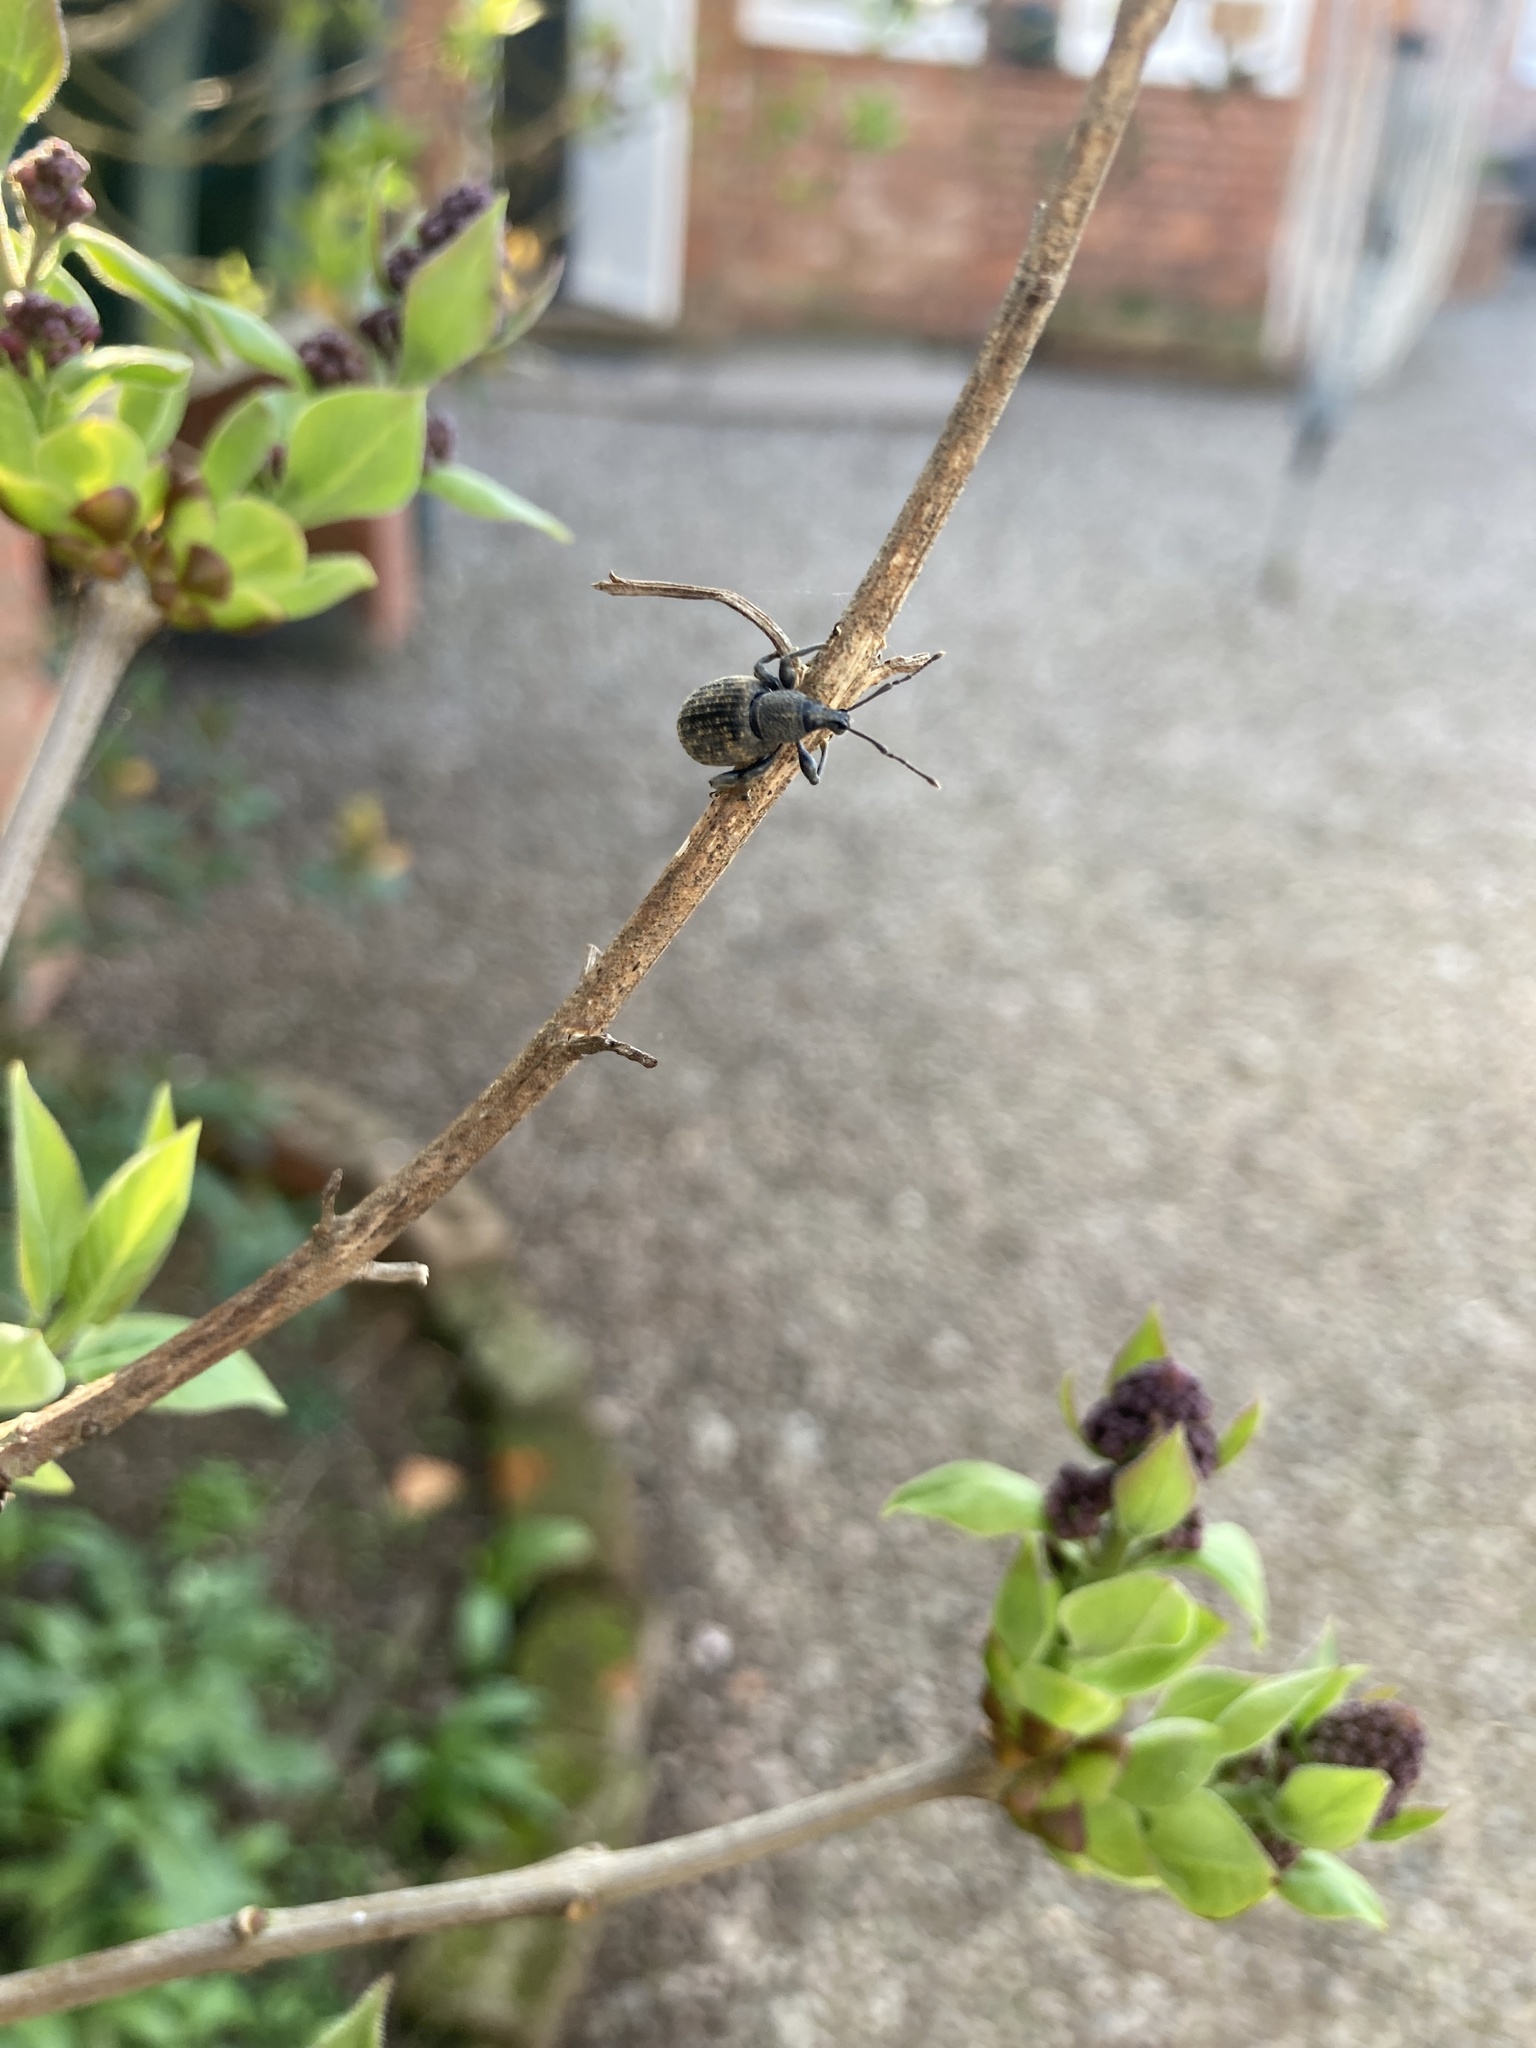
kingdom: Animalia
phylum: Arthropoda
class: Insecta
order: Coleoptera
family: Curculionidae
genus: Otiorhynchus
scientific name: Otiorhynchus sulcatus
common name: Black vine weevil
